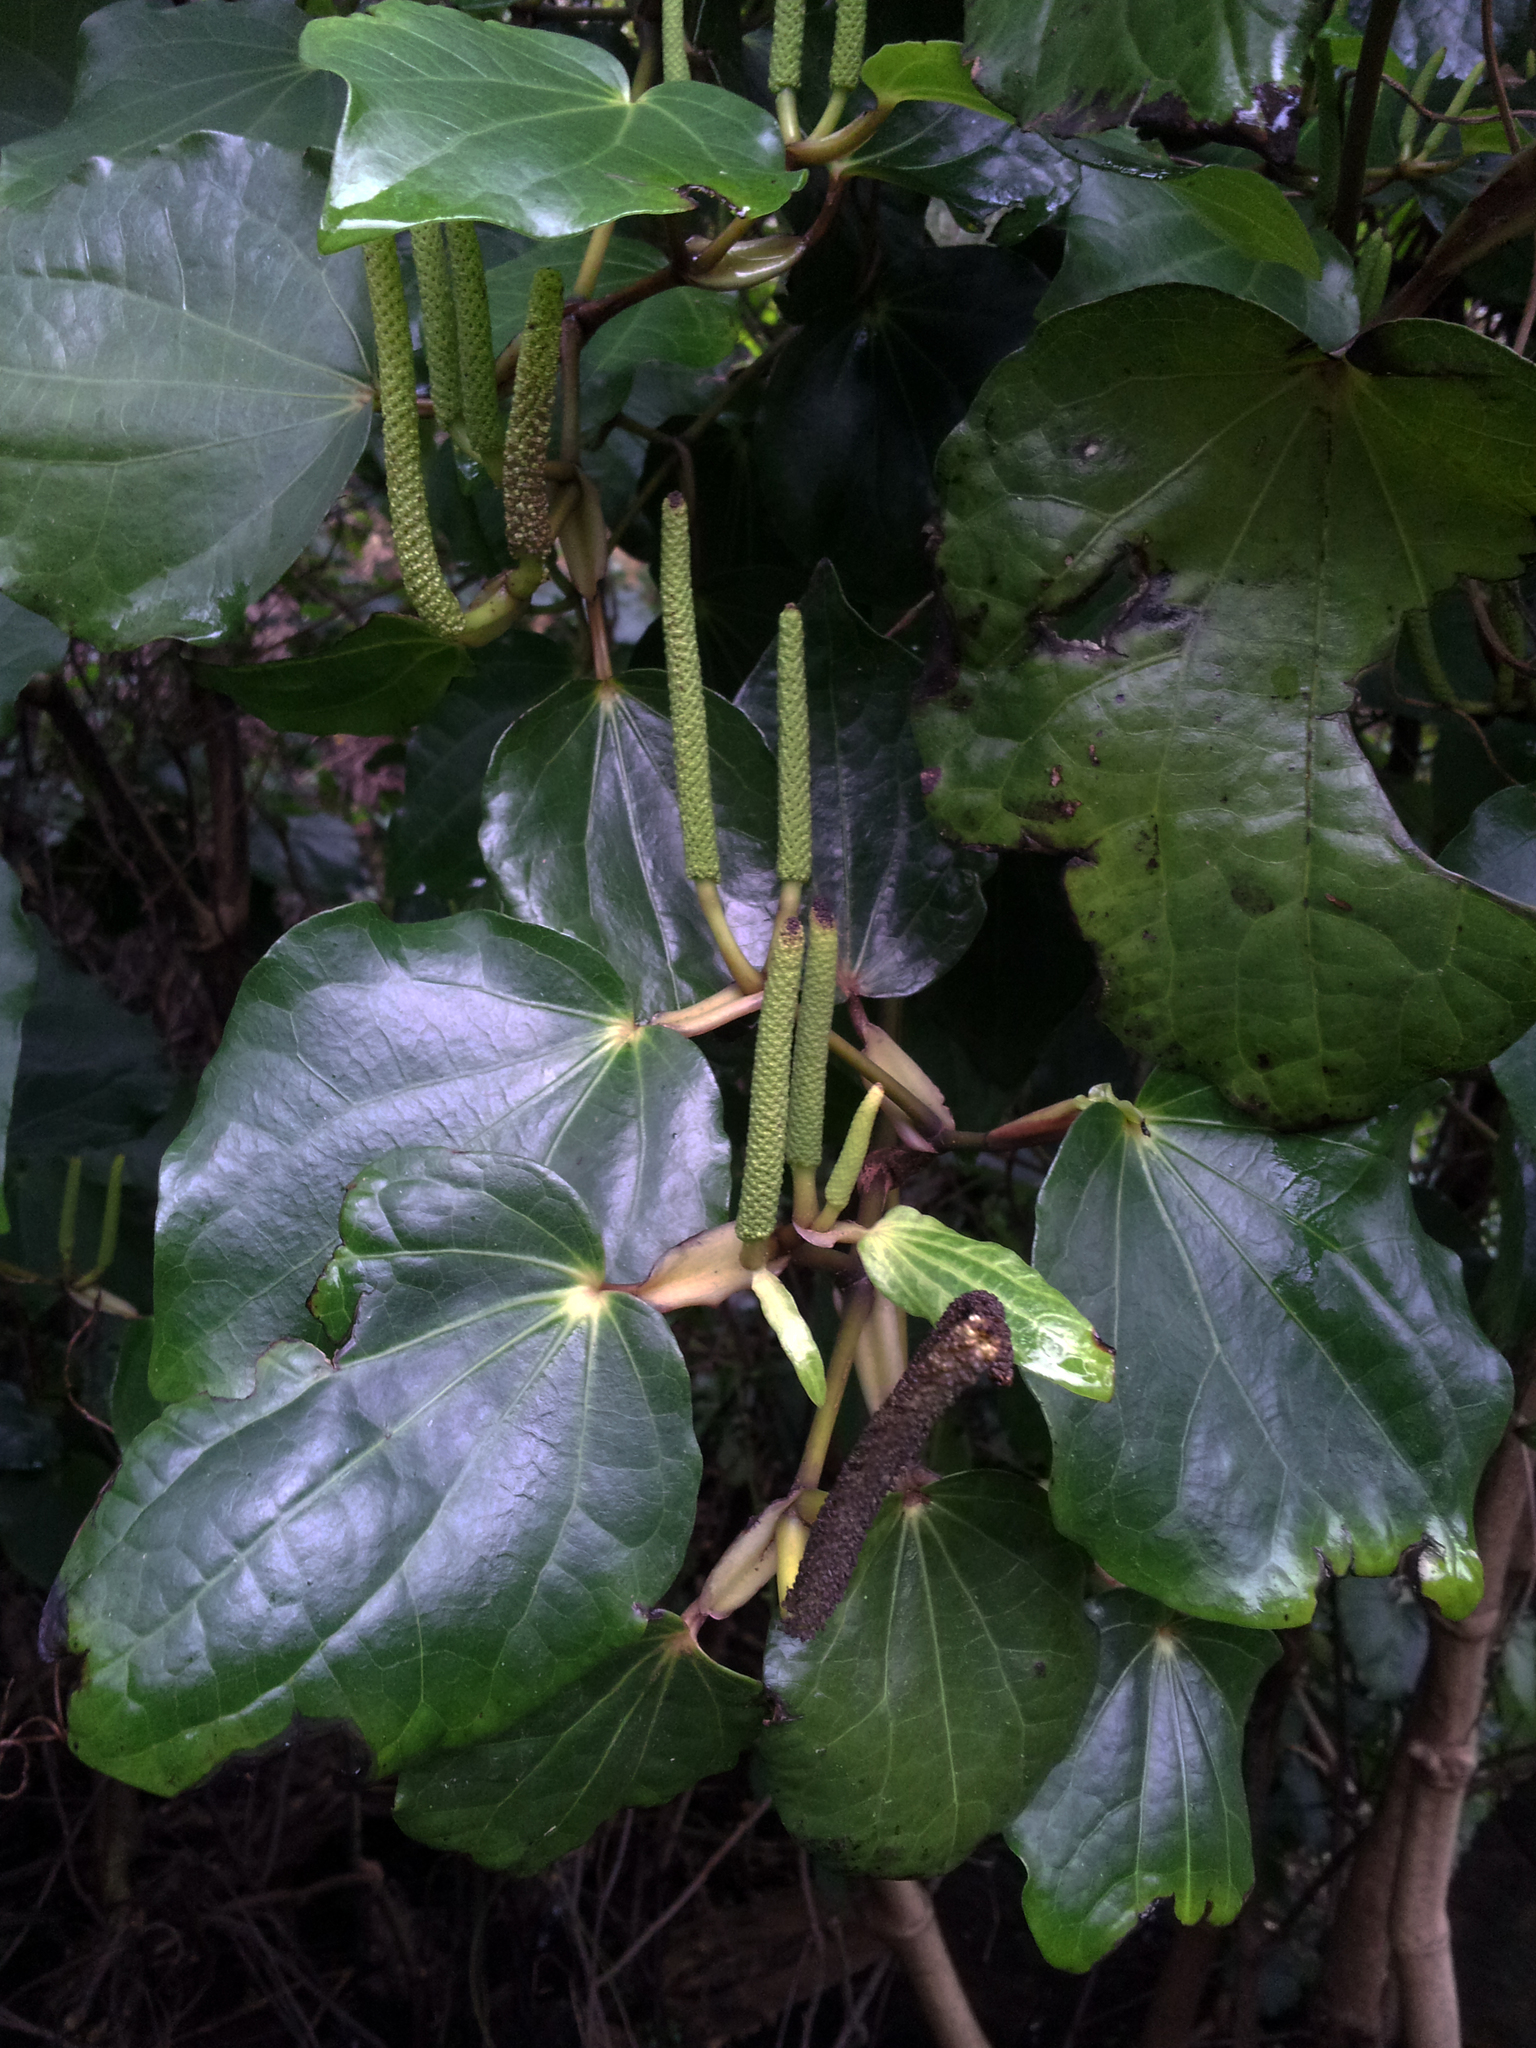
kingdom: Plantae
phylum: Tracheophyta
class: Magnoliopsida
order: Piperales
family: Piperaceae
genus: Macropiper
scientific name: Macropiper excelsum
